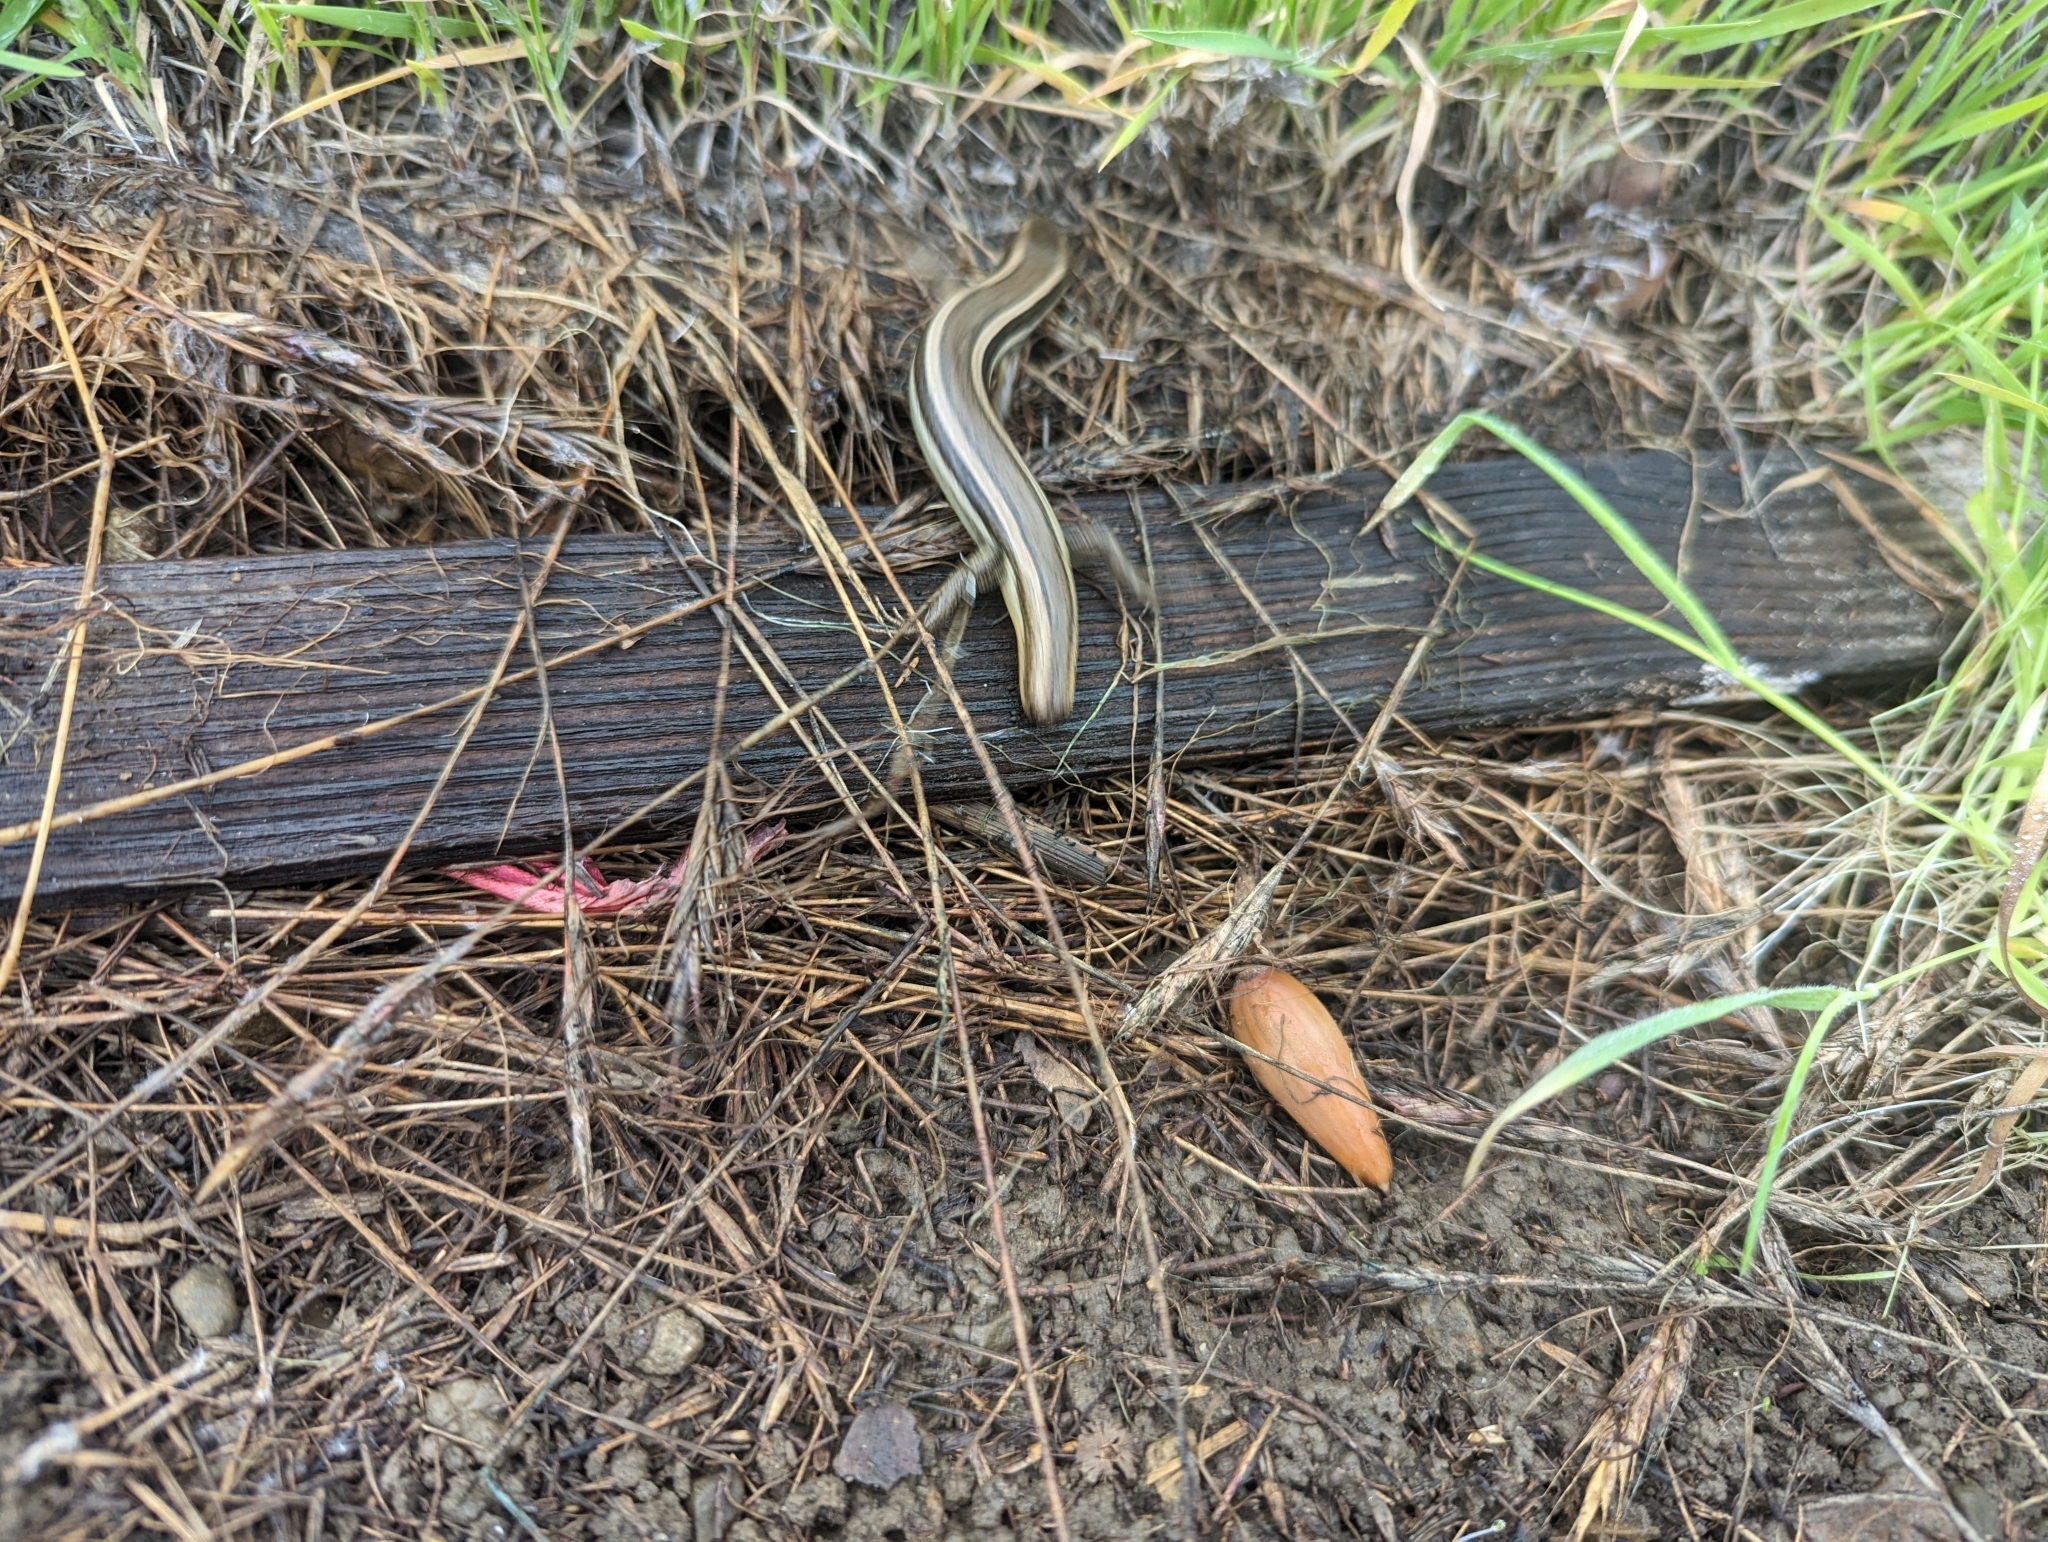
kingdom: Animalia
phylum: Chordata
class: Squamata
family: Scincidae
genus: Plestiodon
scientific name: Plestiodon skiltonianus
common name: Coronado island skink [interparietalis]
